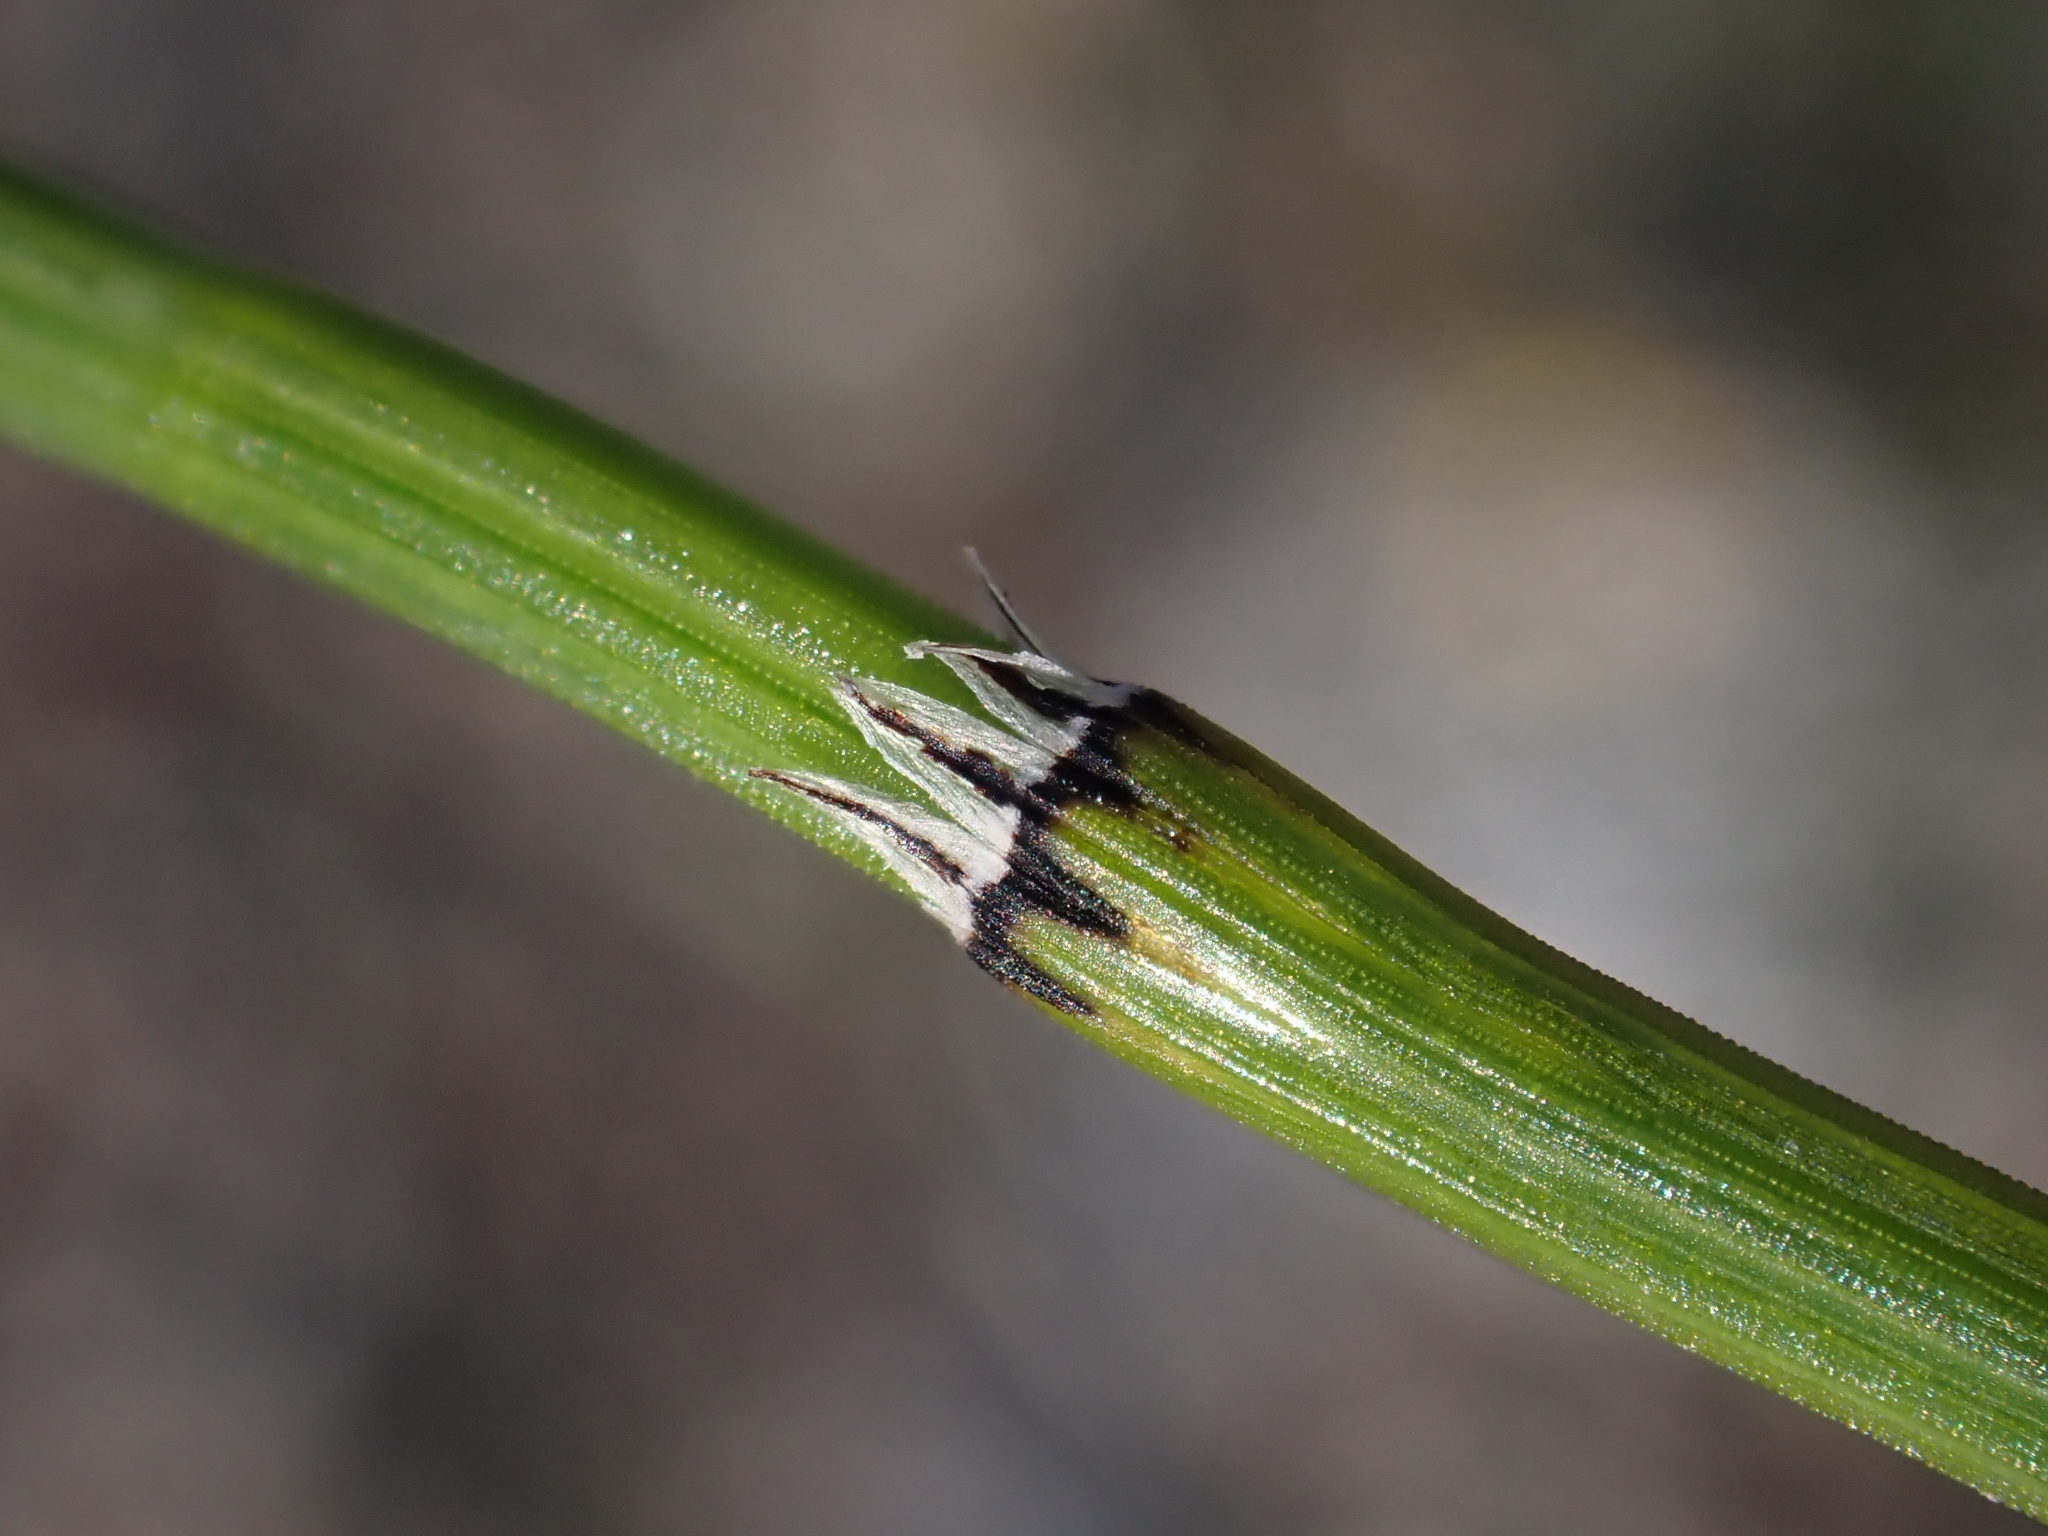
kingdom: Plantae
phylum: Tracheophyta
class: Polypodiopsida
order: Equisetales
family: Equisetaceae
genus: Equisetum
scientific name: Equisetum variegatum
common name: Variegated horsetail
